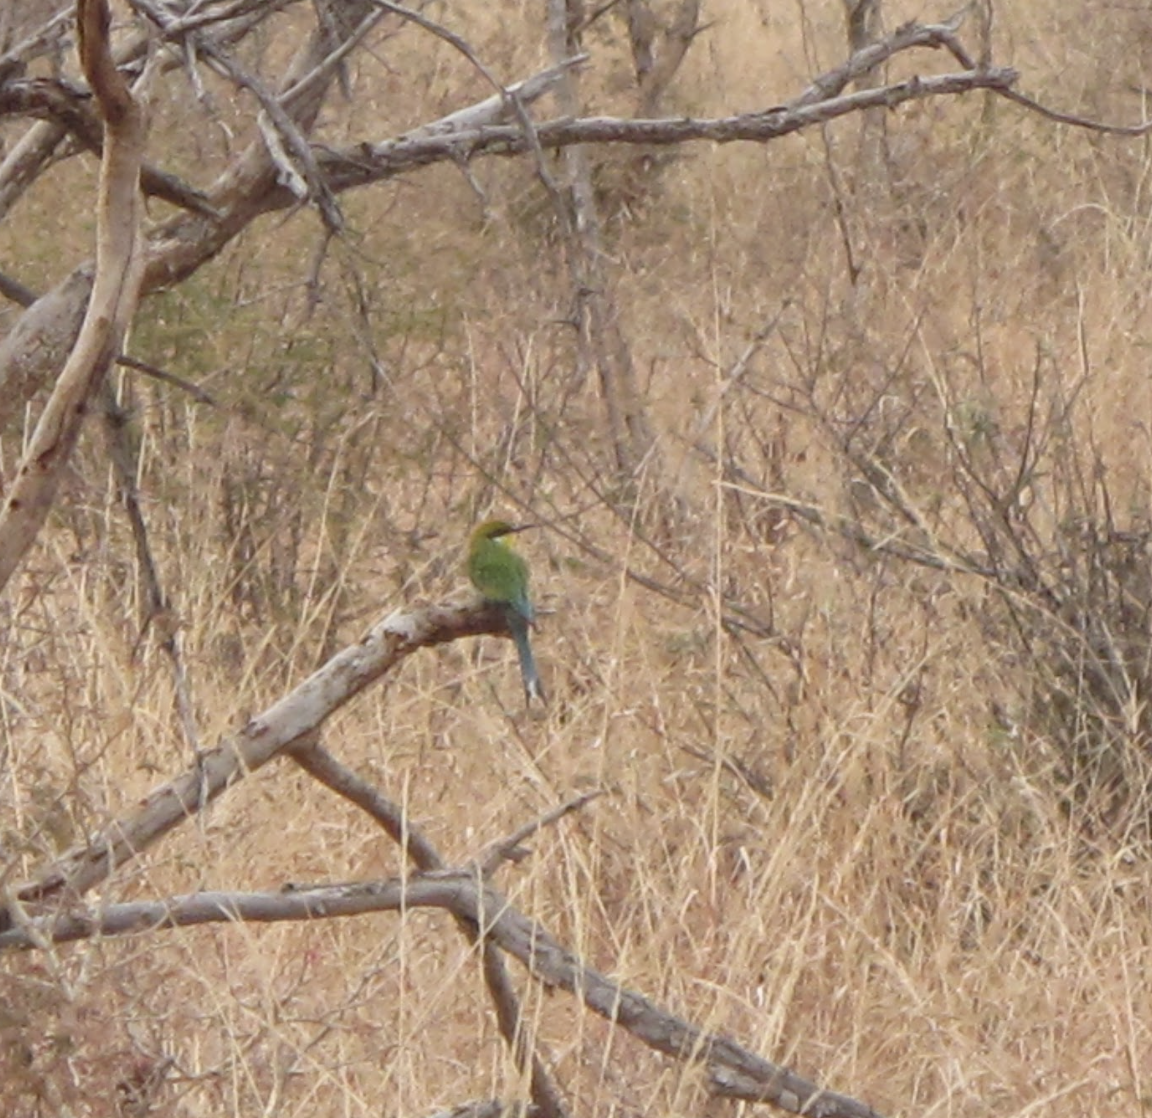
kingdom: Animalia
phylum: Chordata
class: Aves
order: Coraciiformes
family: Meropidae
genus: Merops
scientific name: Merops hirundineus
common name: Swallow-tailed bee-eater
